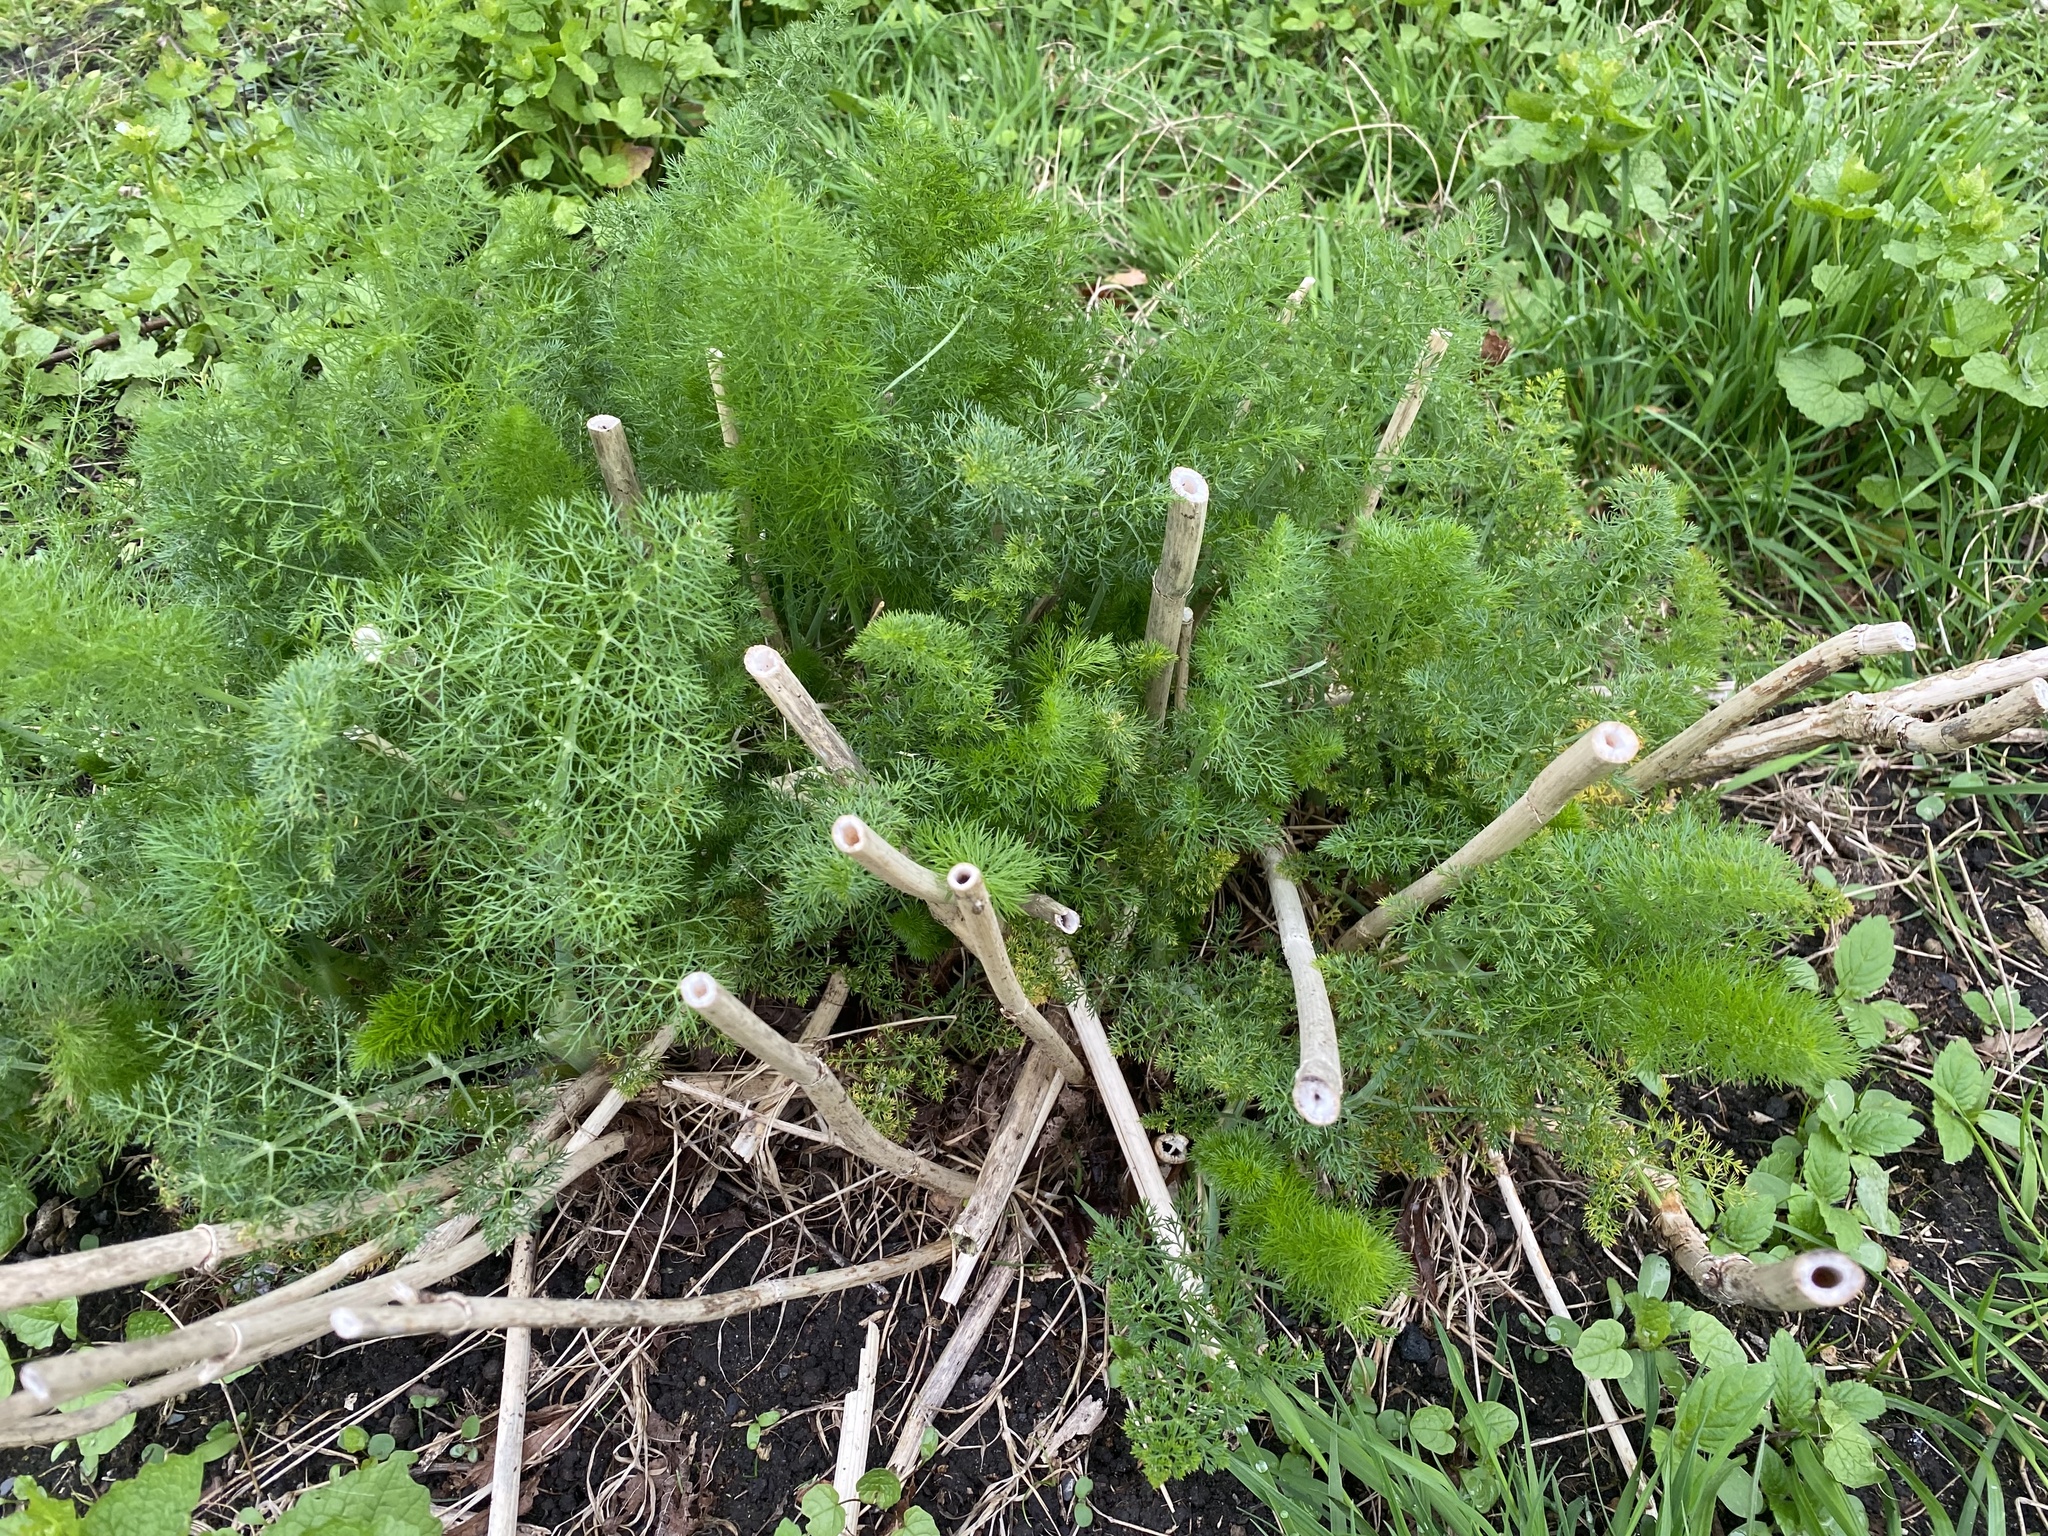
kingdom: Plantae
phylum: Tracheophyta
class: Magnoliopsida
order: Apiales
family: Apiaceae
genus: Foeniculum
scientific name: Foeniculum vulgare
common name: Fennel
